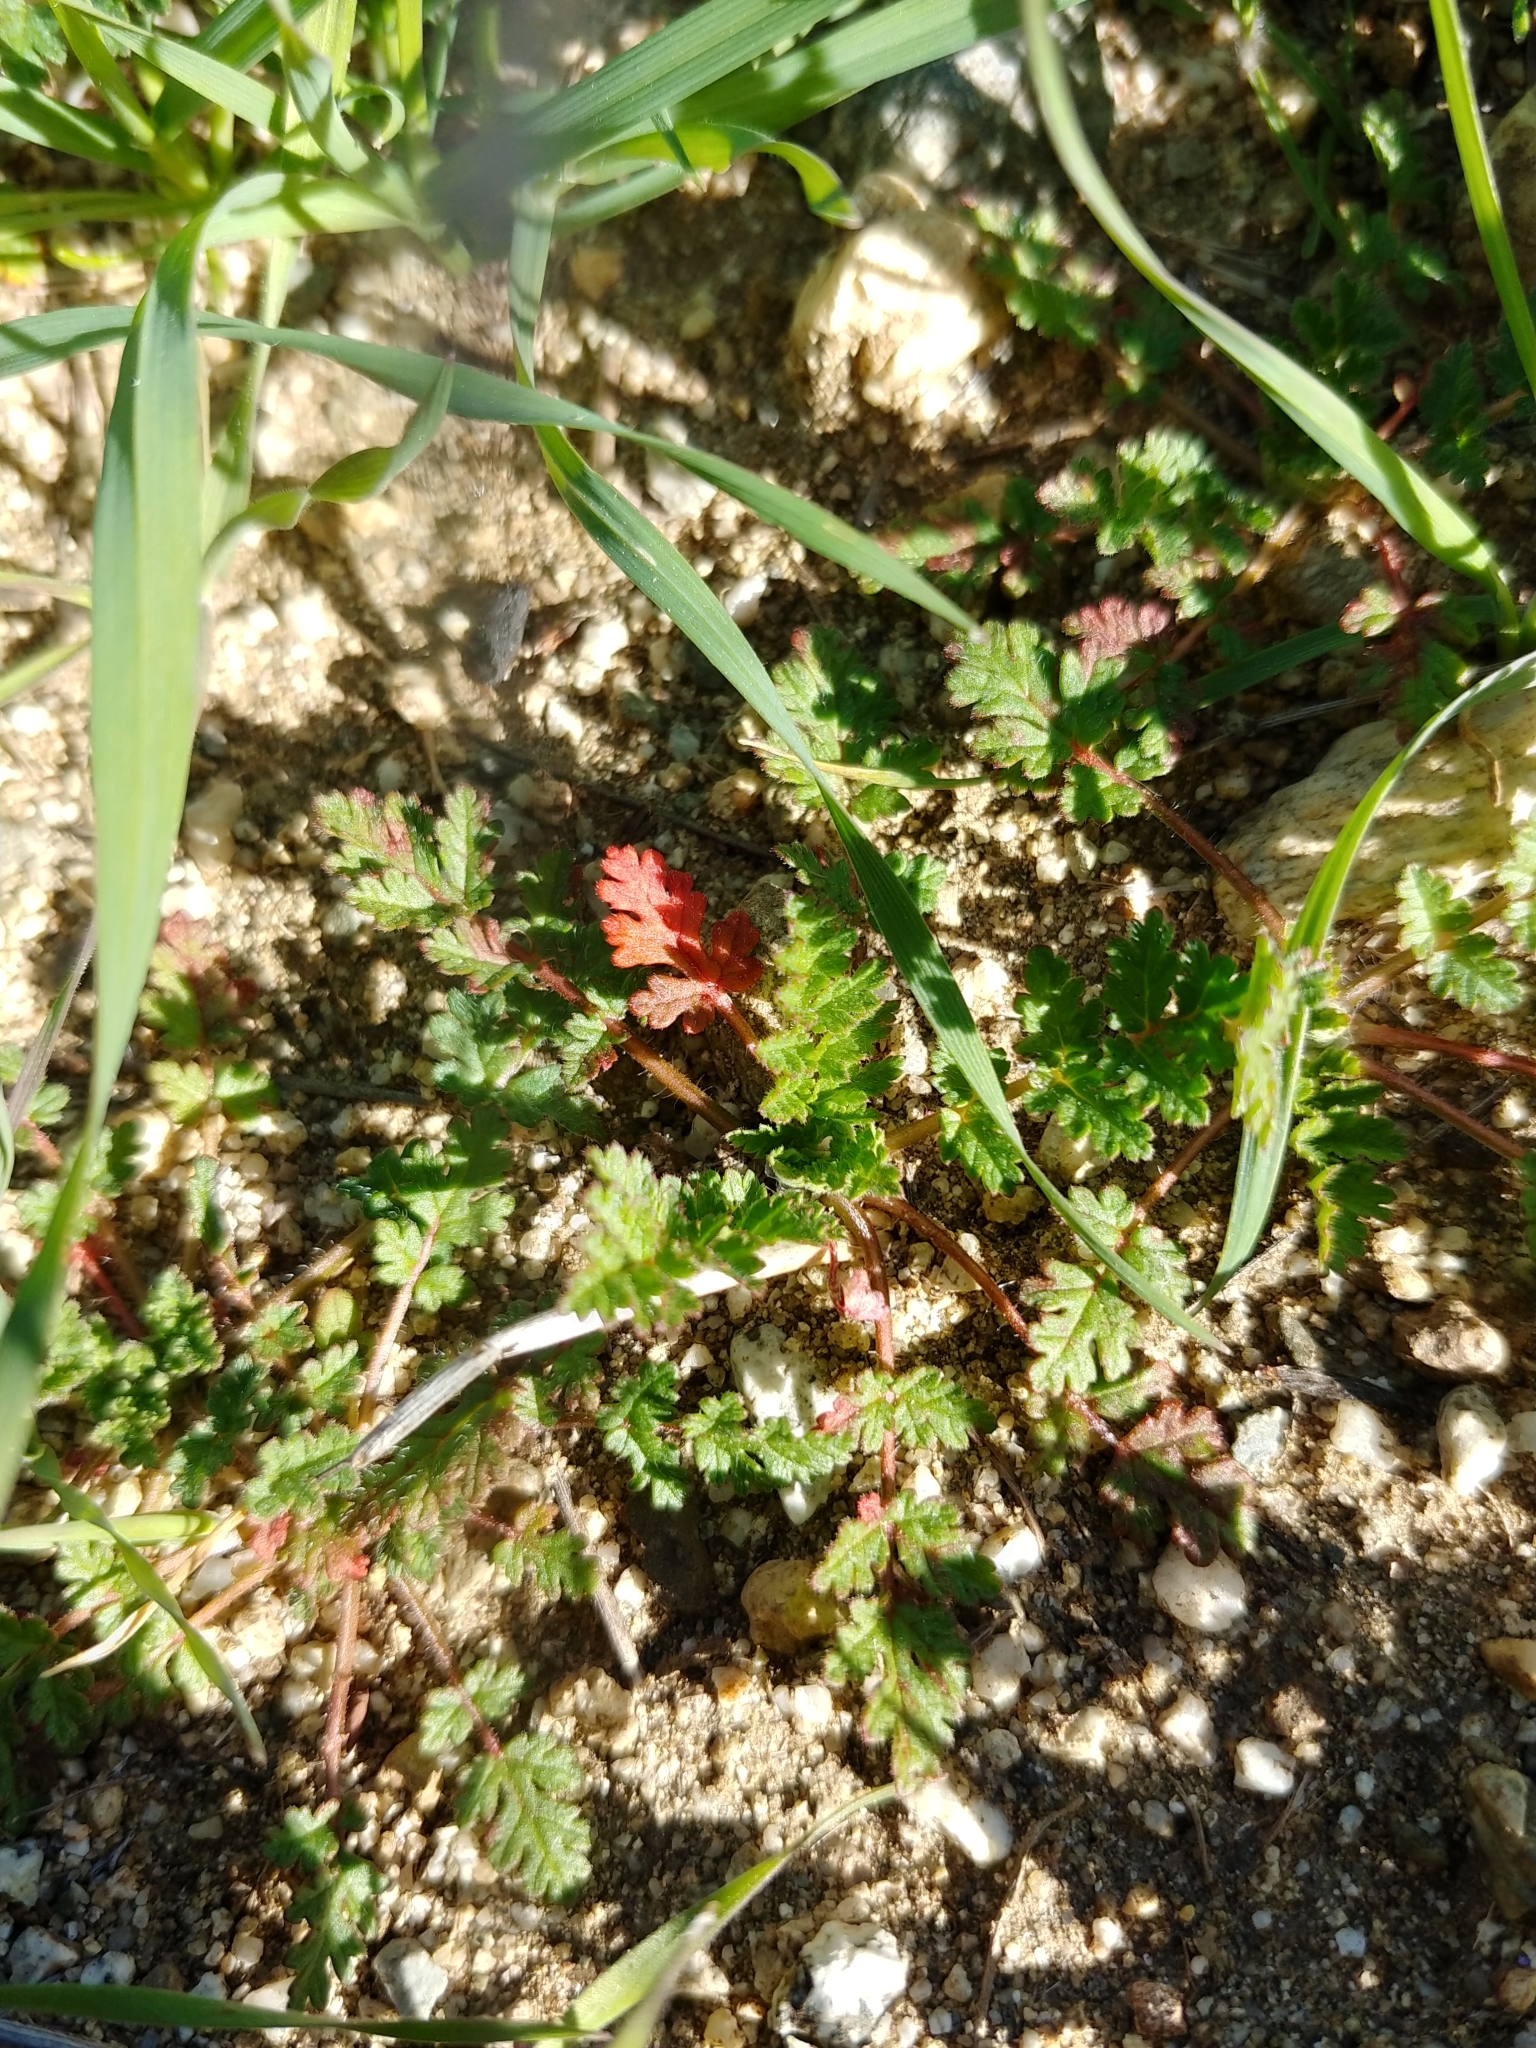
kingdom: Plantae
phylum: Tracheophyta
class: Magnoliopsida
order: Geraniales
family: Geraniaceae
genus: Erodium
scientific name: Erodium cicutarium
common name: Common stork's-bill
